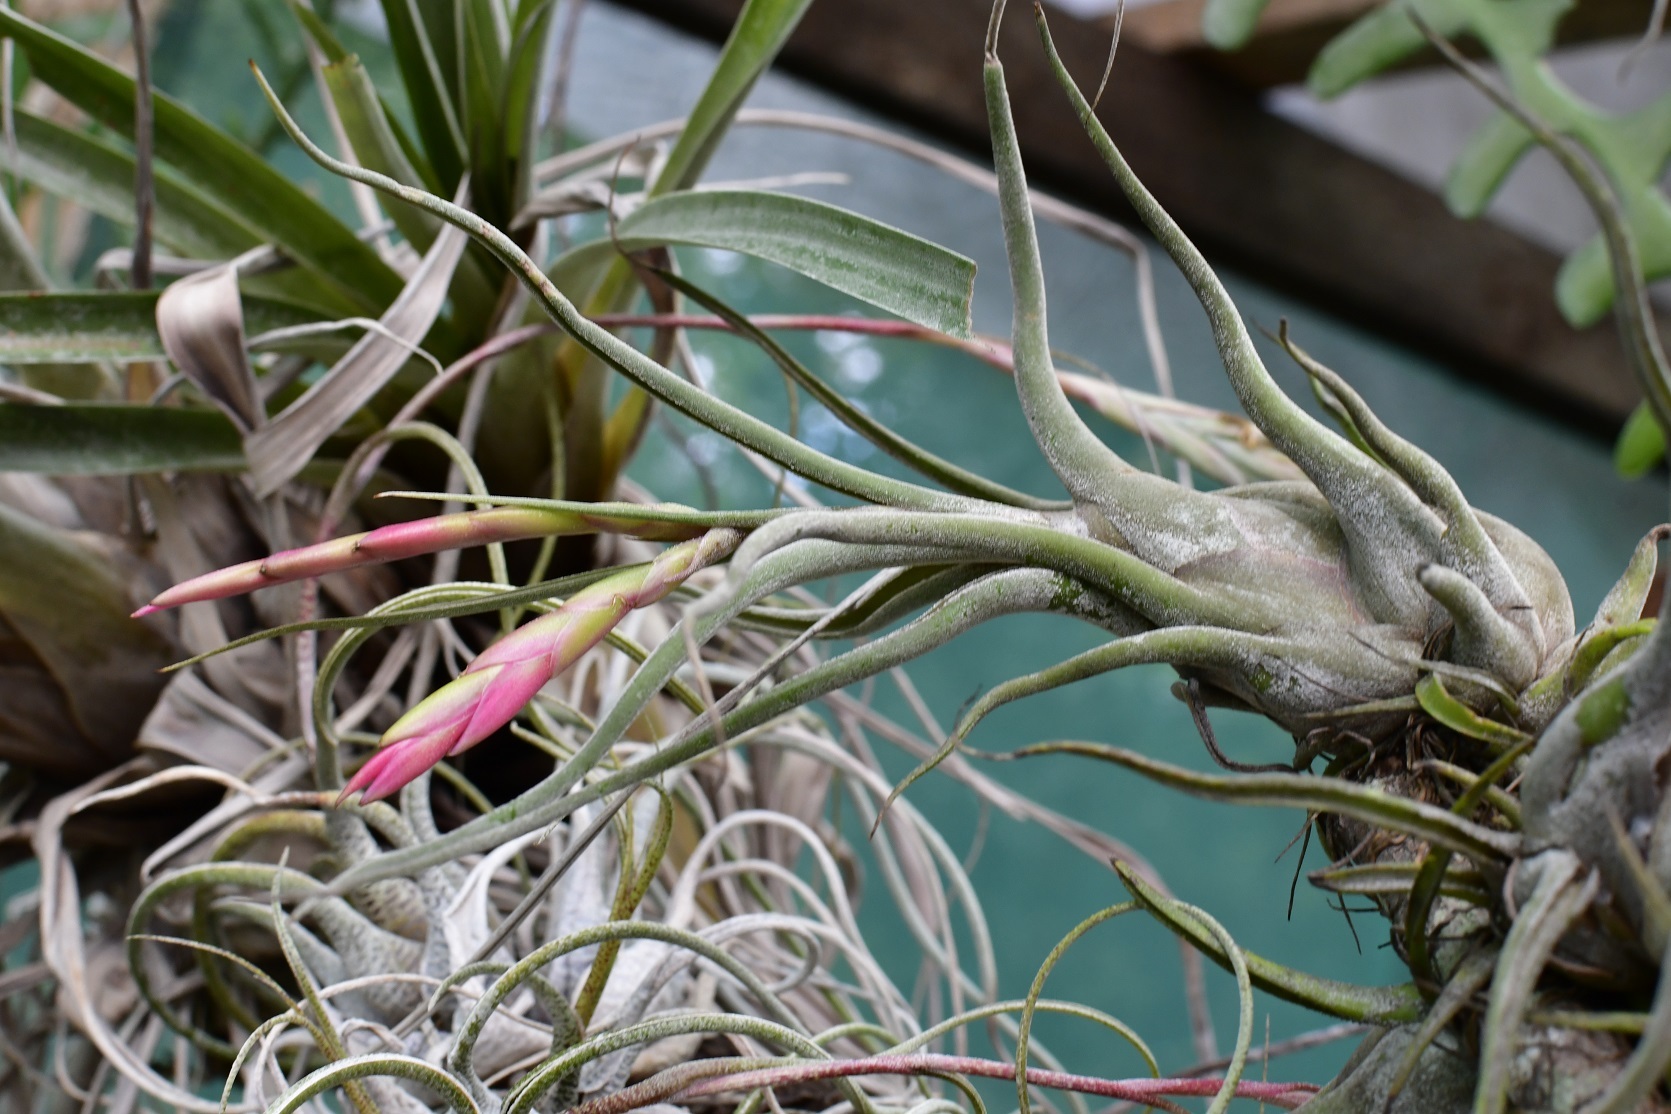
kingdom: Plantae
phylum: Tracheophyta
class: Liliopsida
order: Poales
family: Bromeliaceae
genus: Tillandsia
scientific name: Tillandsia caput-medusae
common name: Octopus plant
